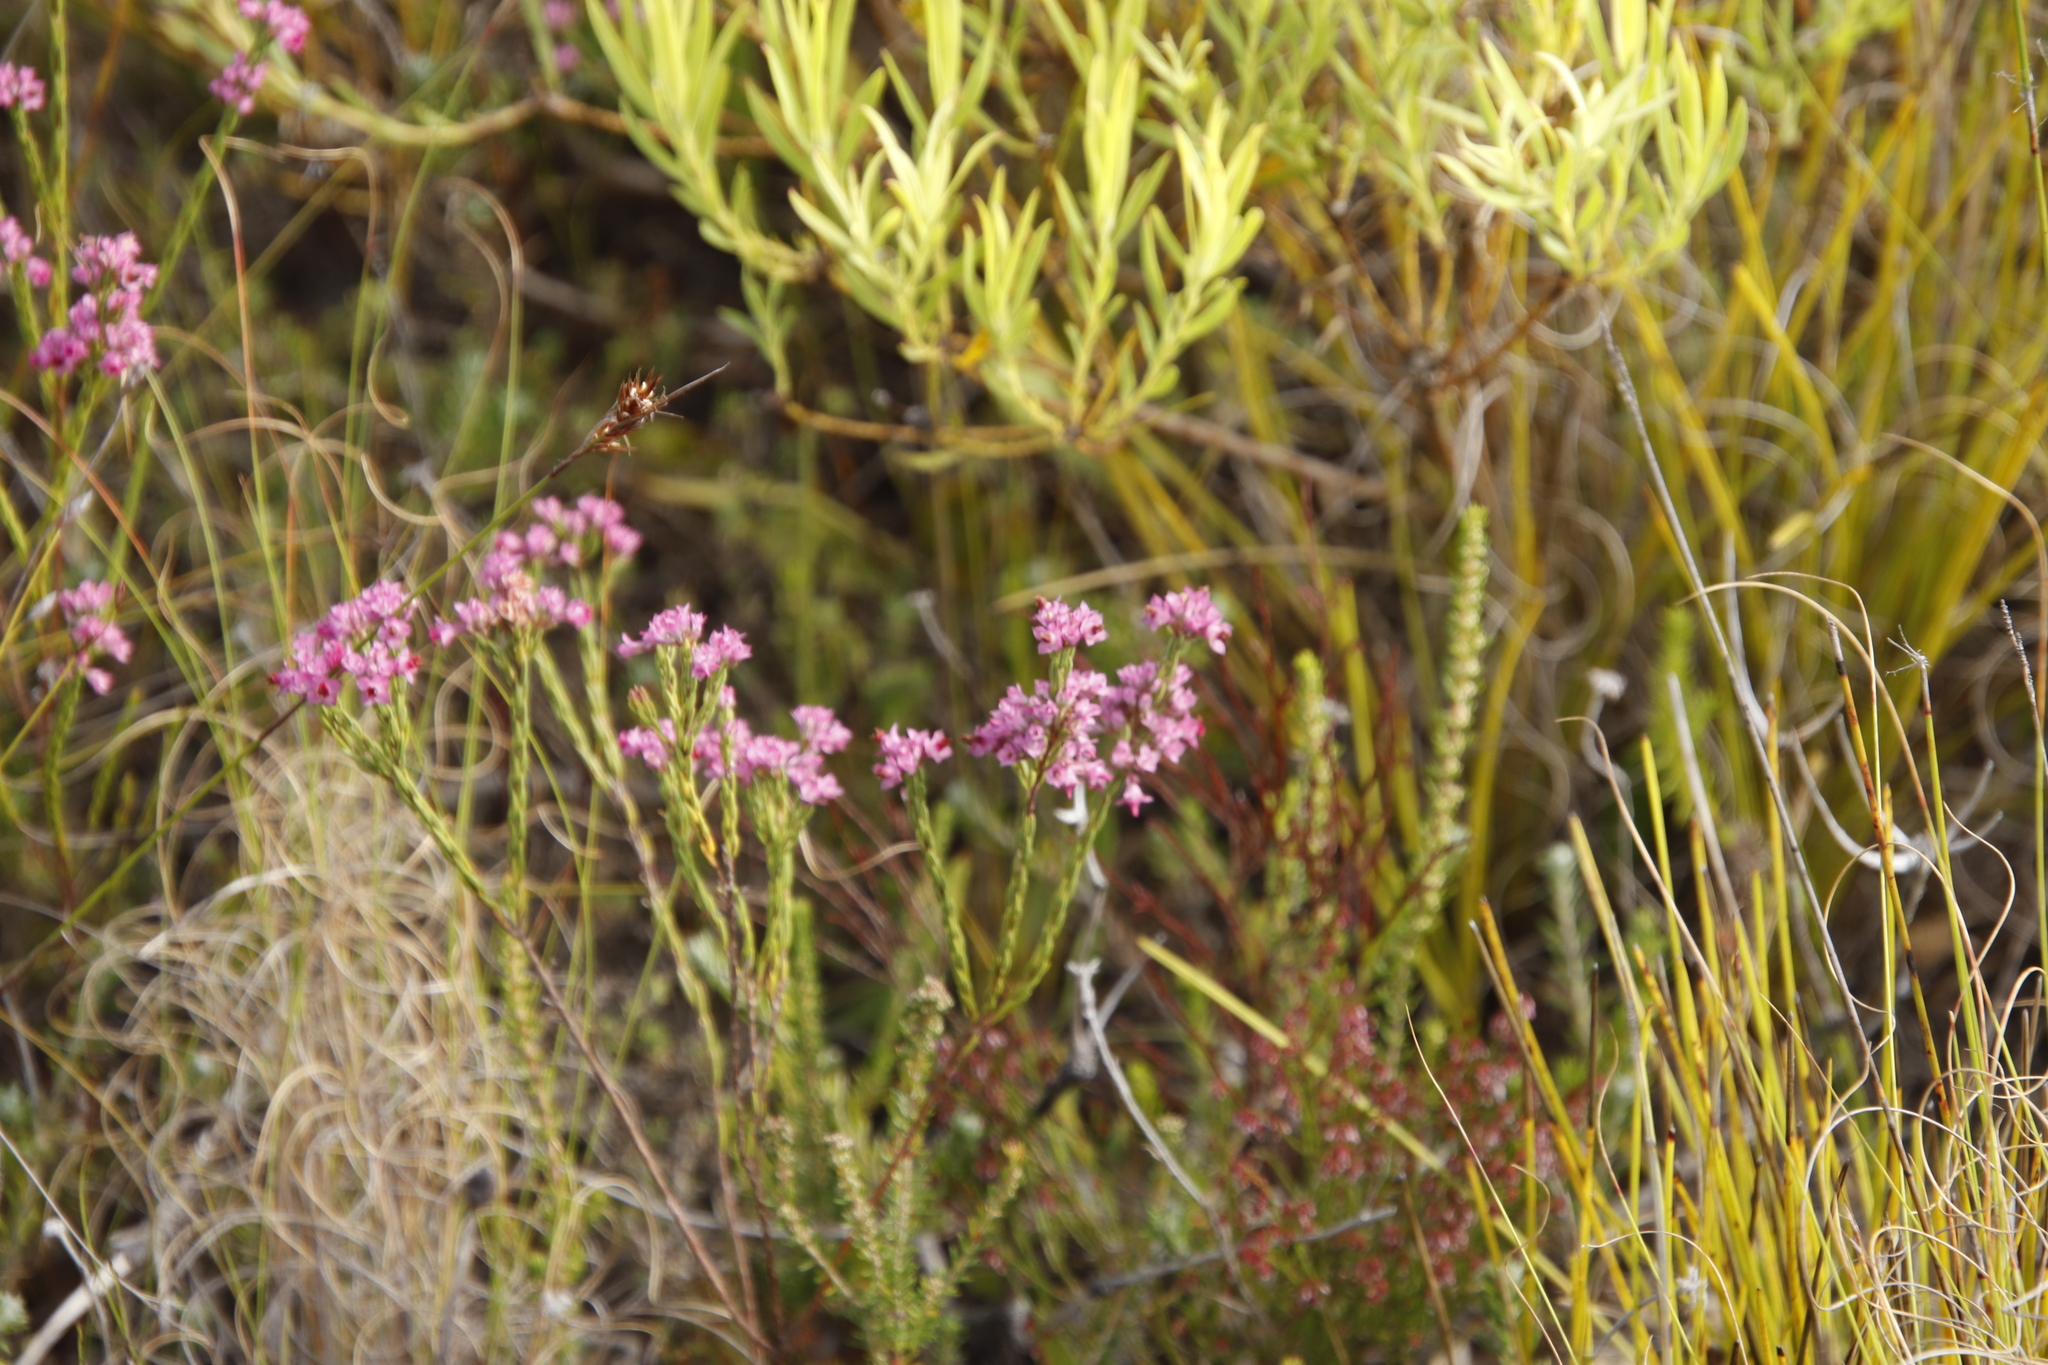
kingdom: Plantae
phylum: Tracheophyta
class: Magnoliopsida
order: Ericales
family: Ericaceae
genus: Erica
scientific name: Erica corifolia
